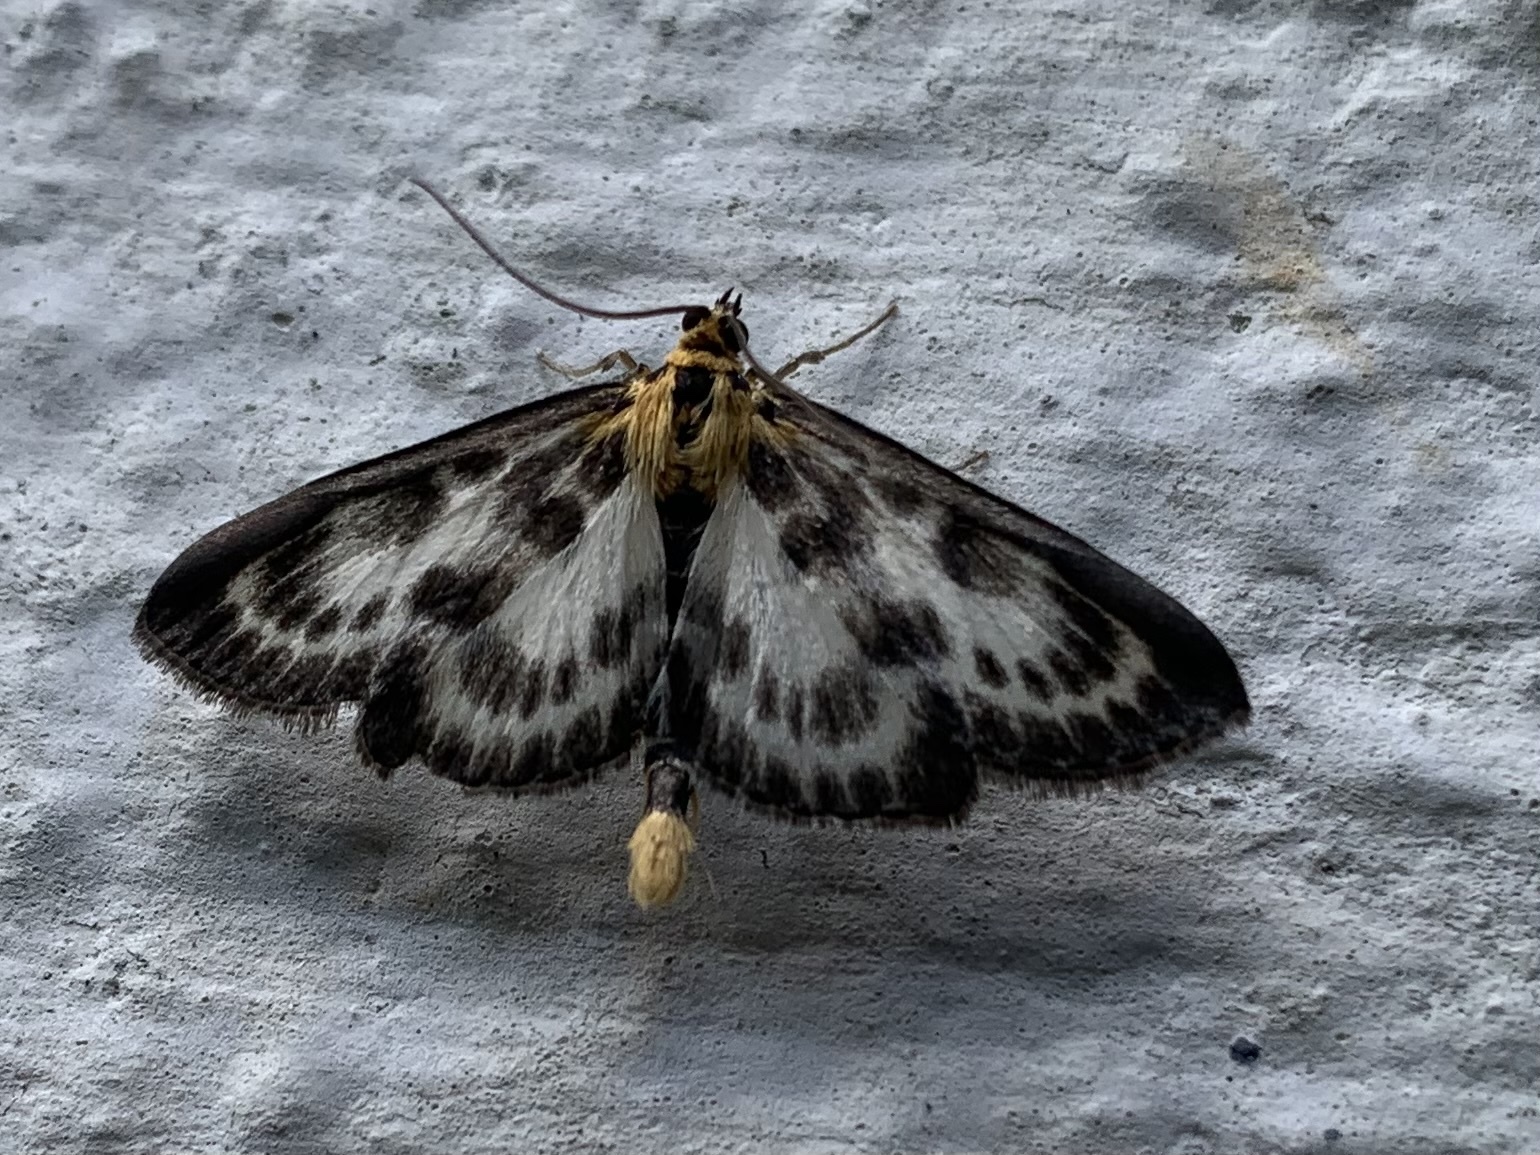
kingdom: Animalia
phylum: Arthropoda
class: Insecta
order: Lepidoptera
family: Crambidae
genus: Anania
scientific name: Anania hortulata
